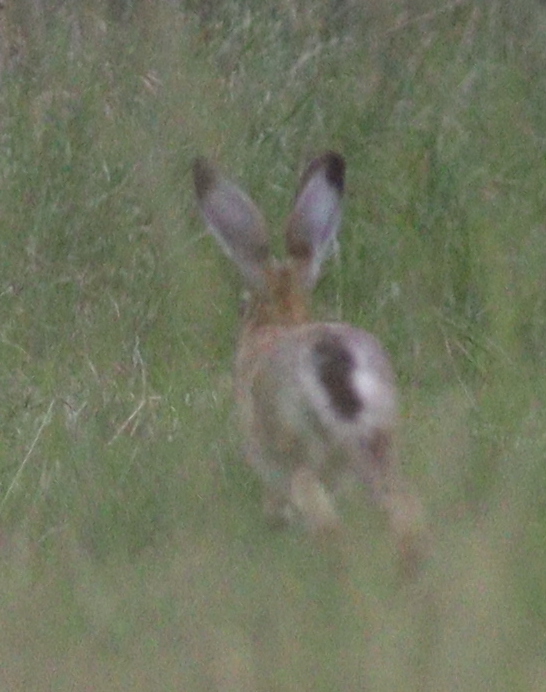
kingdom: Animalia
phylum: Chordata
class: Mammalia
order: Lagomorpha
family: Leporidae
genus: Lepus
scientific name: Lepus europaeus
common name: European hare
